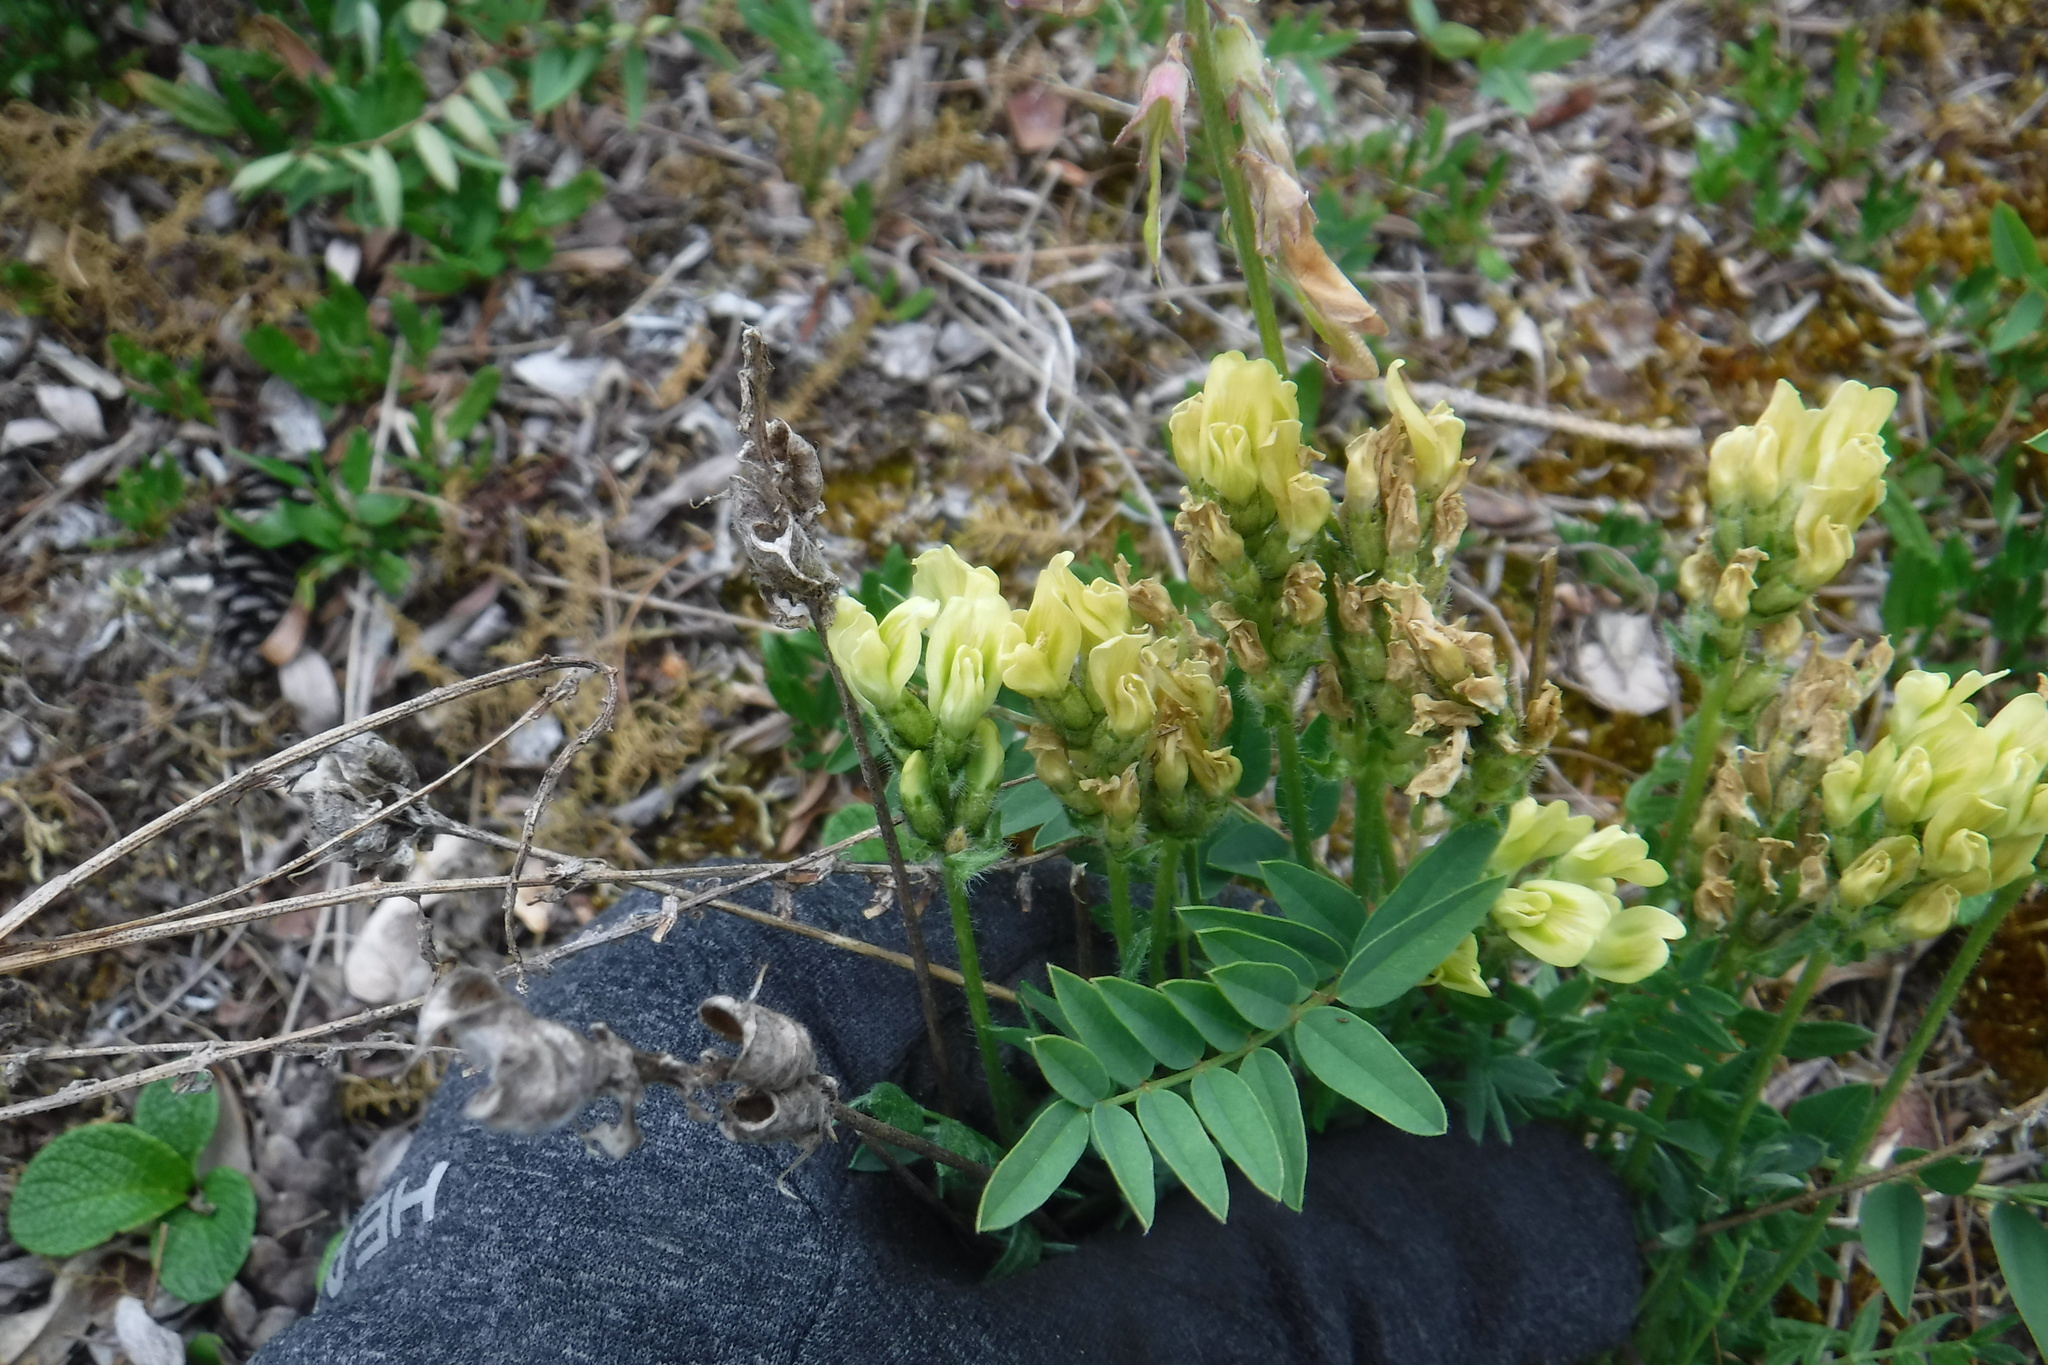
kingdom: Plantae
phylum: Tracheophyta
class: Magnoliopsida
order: Fabales
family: Fabaceae
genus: Oxytropis
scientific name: Oxytropis maydelliana
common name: Maydell's locoweed
